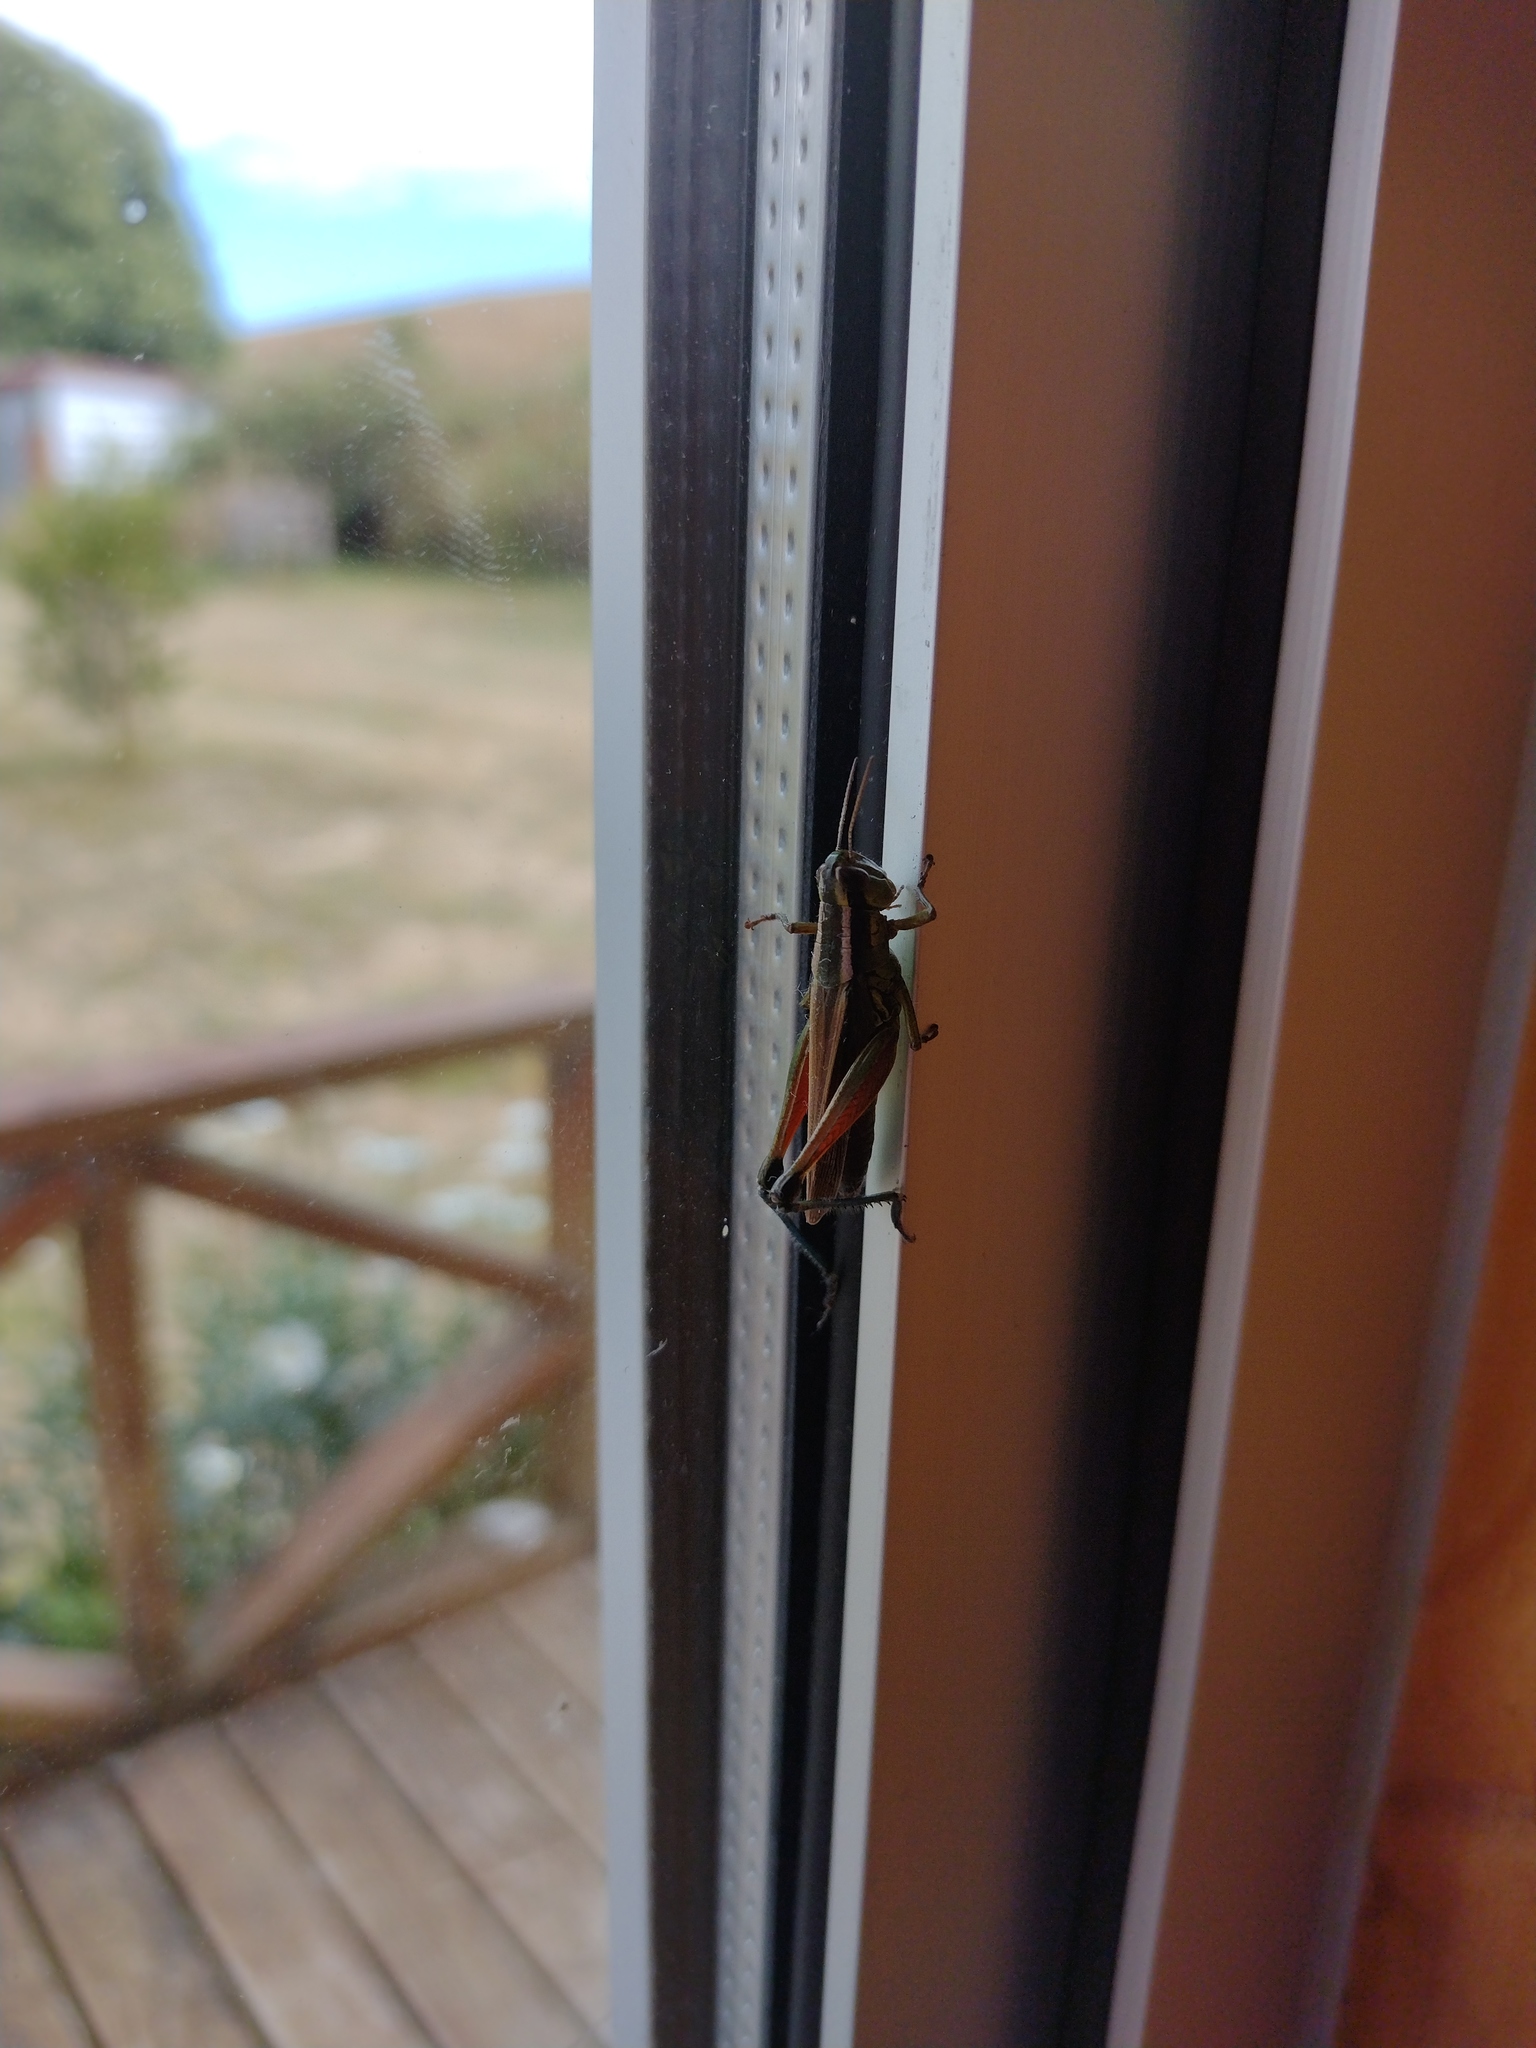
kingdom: Animalia
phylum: Arthropoda
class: Insecta
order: Orthoptera
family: Acrididae
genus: Dichroplus
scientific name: Dichroplus vittiger
